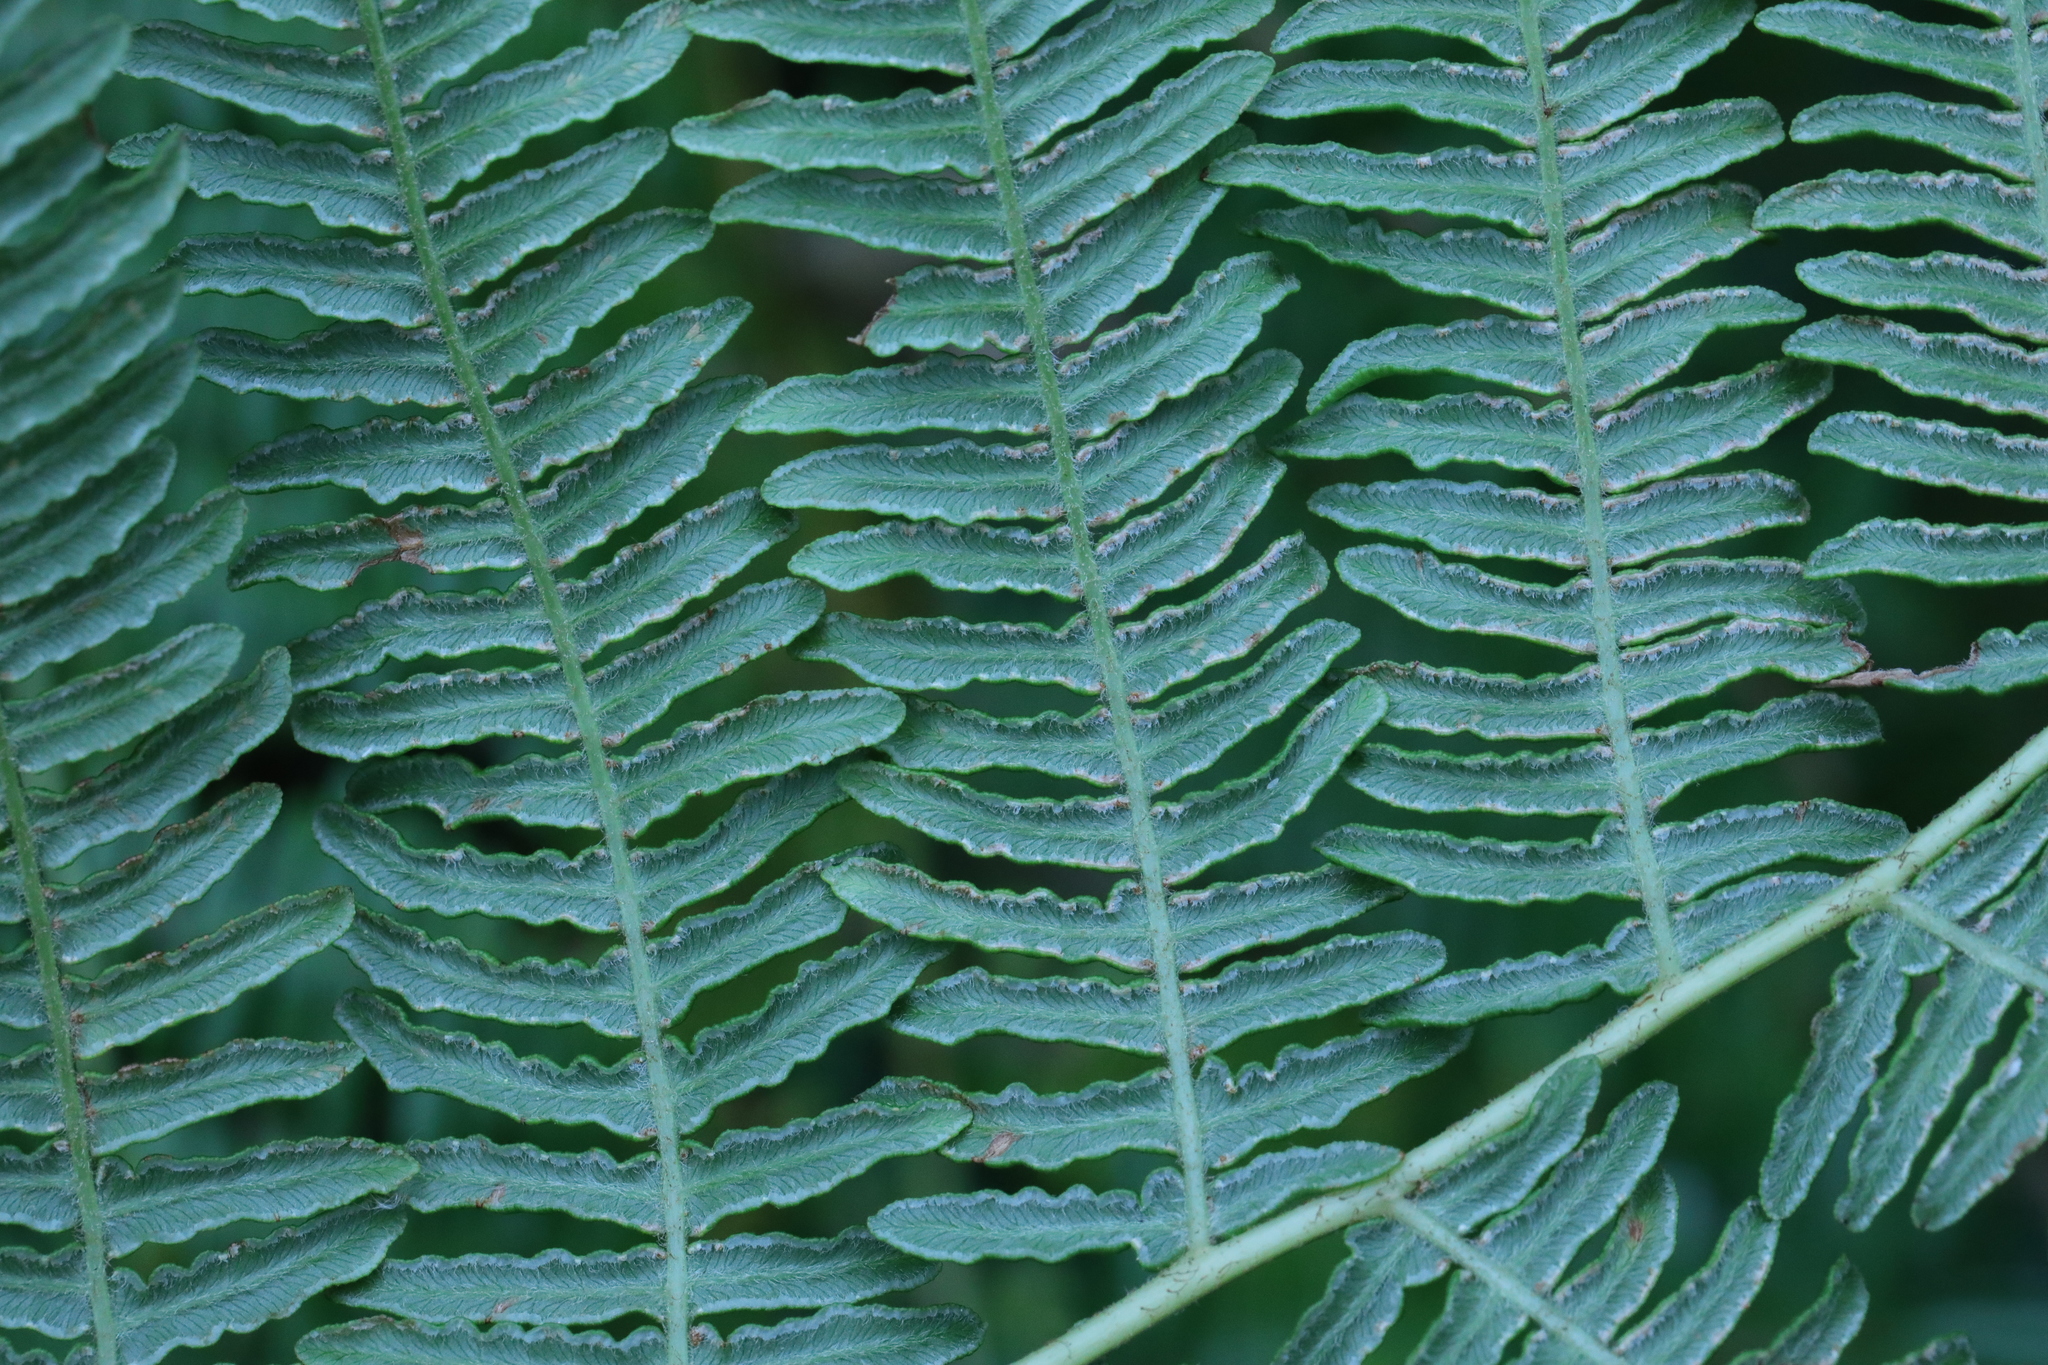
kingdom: Plantae
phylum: Tracheophyta
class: Polypodiopsida
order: Polypodiales
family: Dennstaedtiaceae
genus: Pteridium
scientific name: Pteridium aquilinum
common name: Bracken
